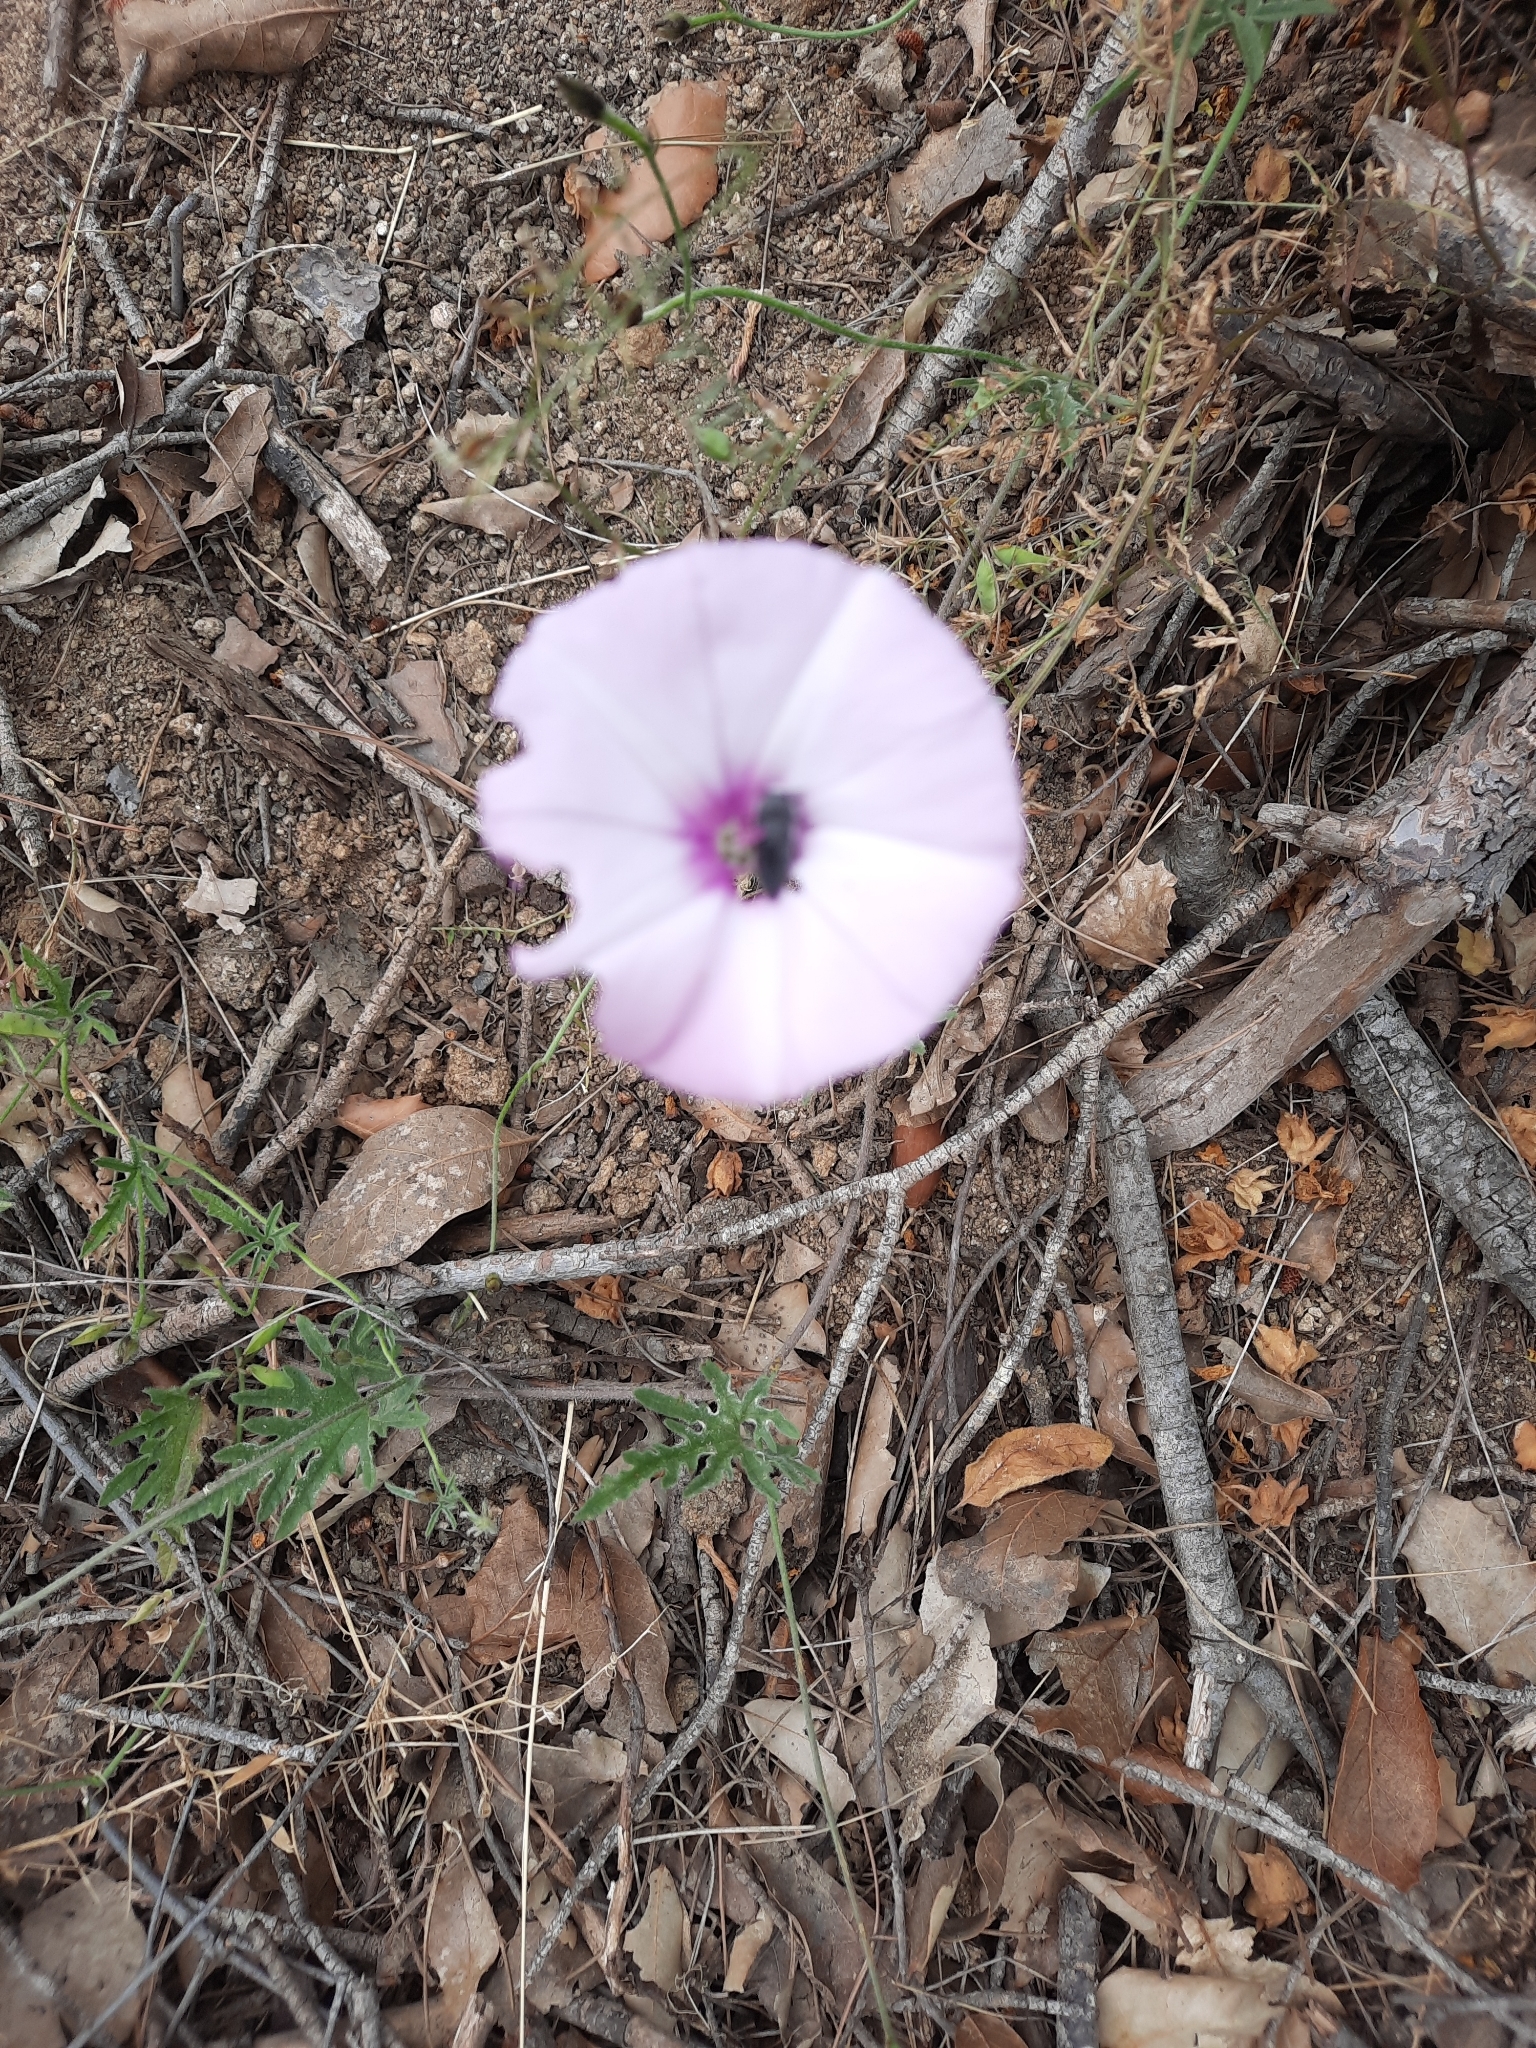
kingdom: Plantae
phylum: Tracheophyta
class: Magnoliopsida
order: Solanales
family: Convolvulaceae
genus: Convolvulus
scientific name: Convolvulus althaeoides
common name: Mallow bindweed
